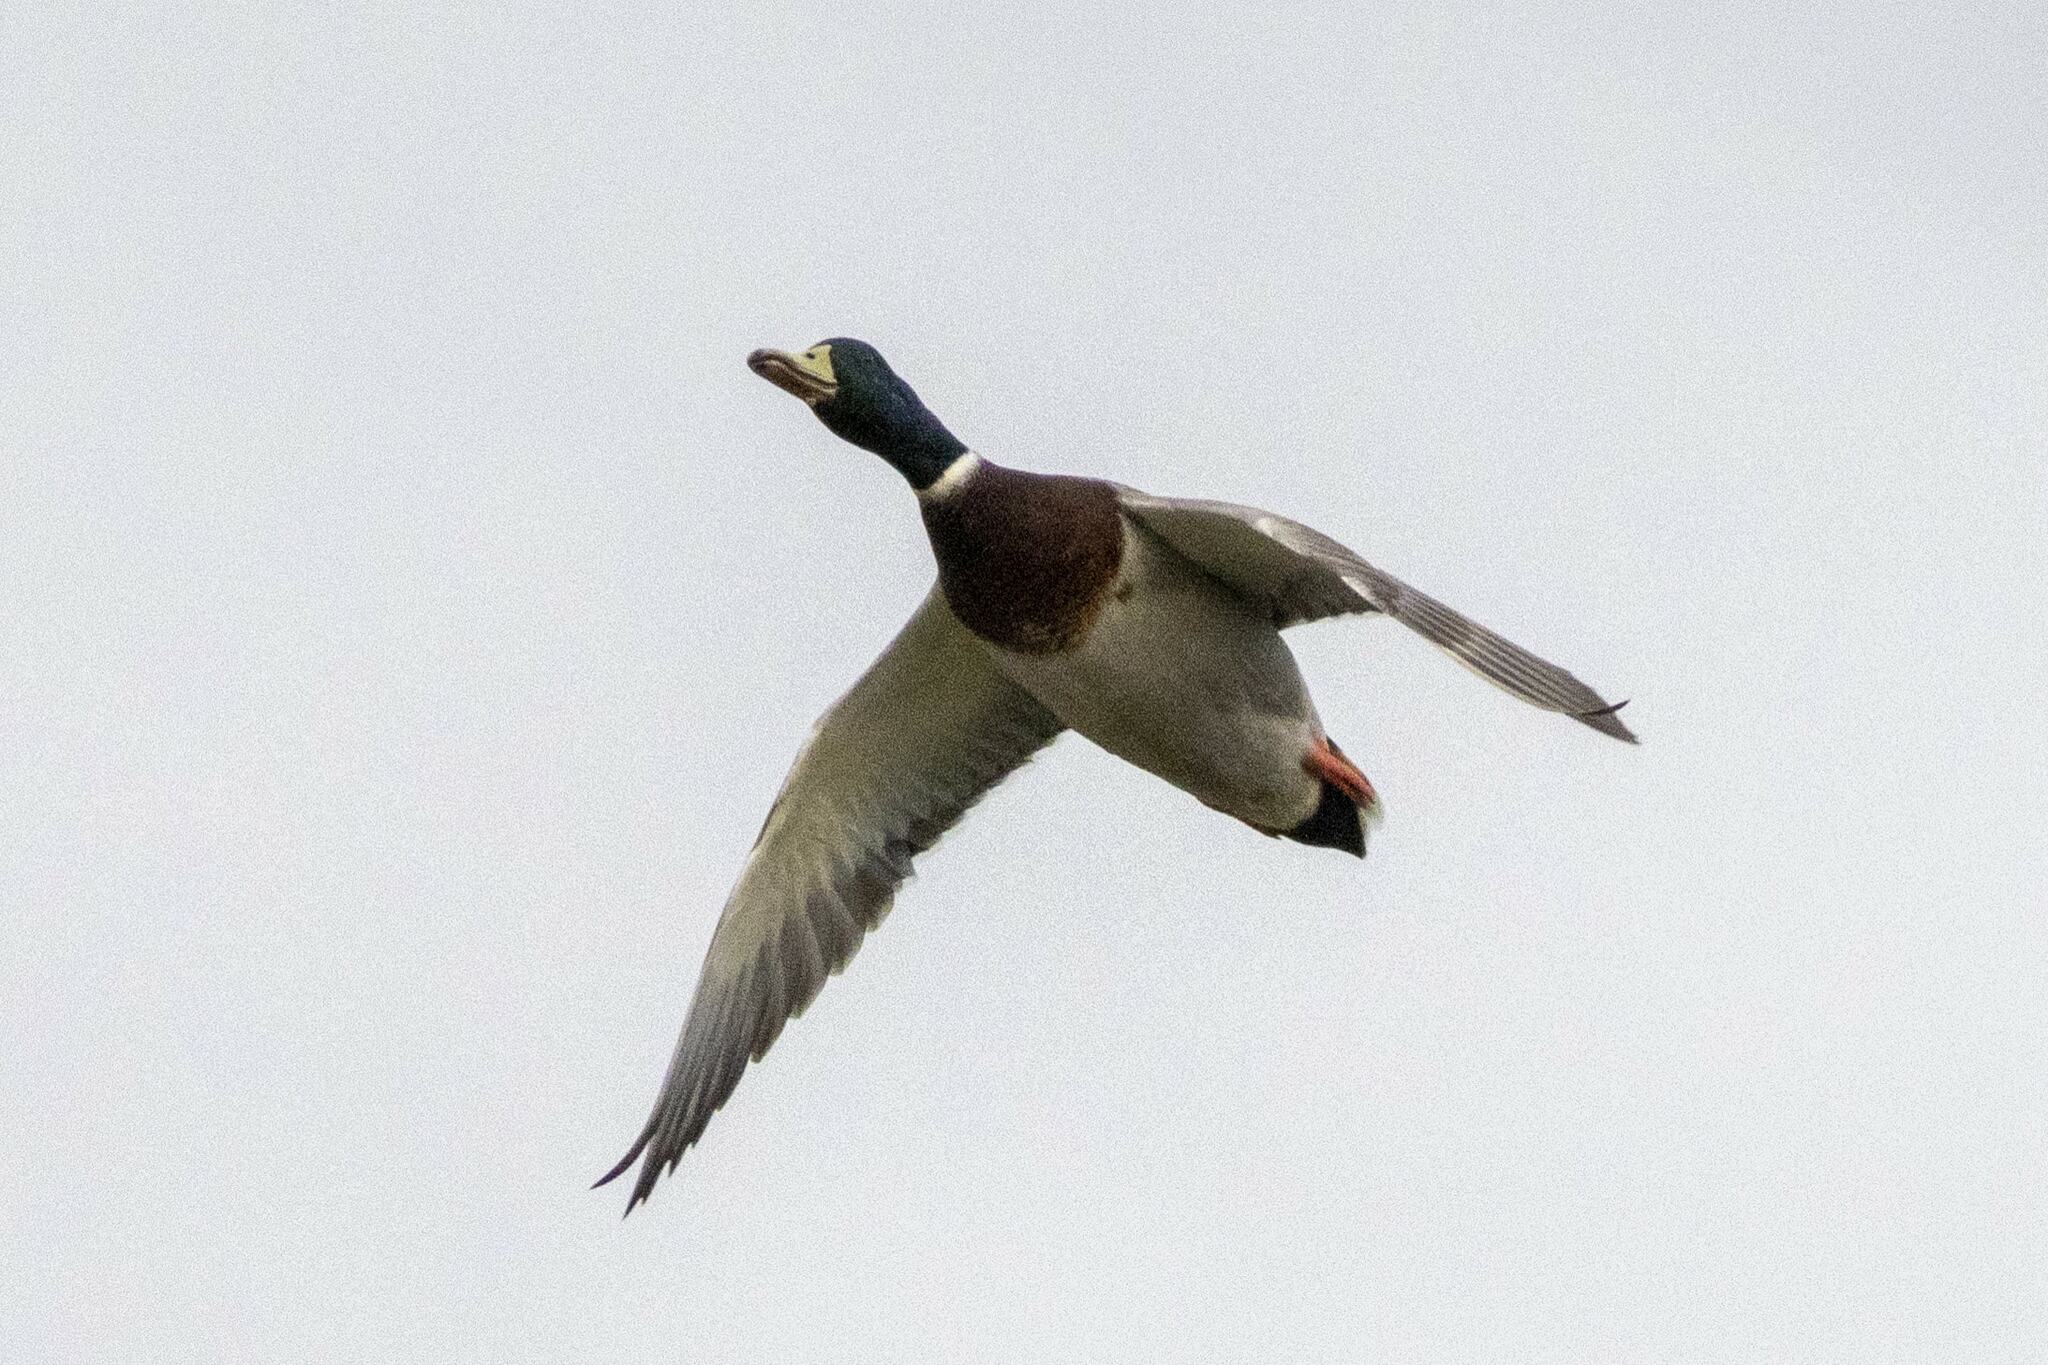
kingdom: Animalia
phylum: Chordata
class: Aves
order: Anseriformes
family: Anatidae
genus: Anas
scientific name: Anas platyrhynchos
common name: Mallard
